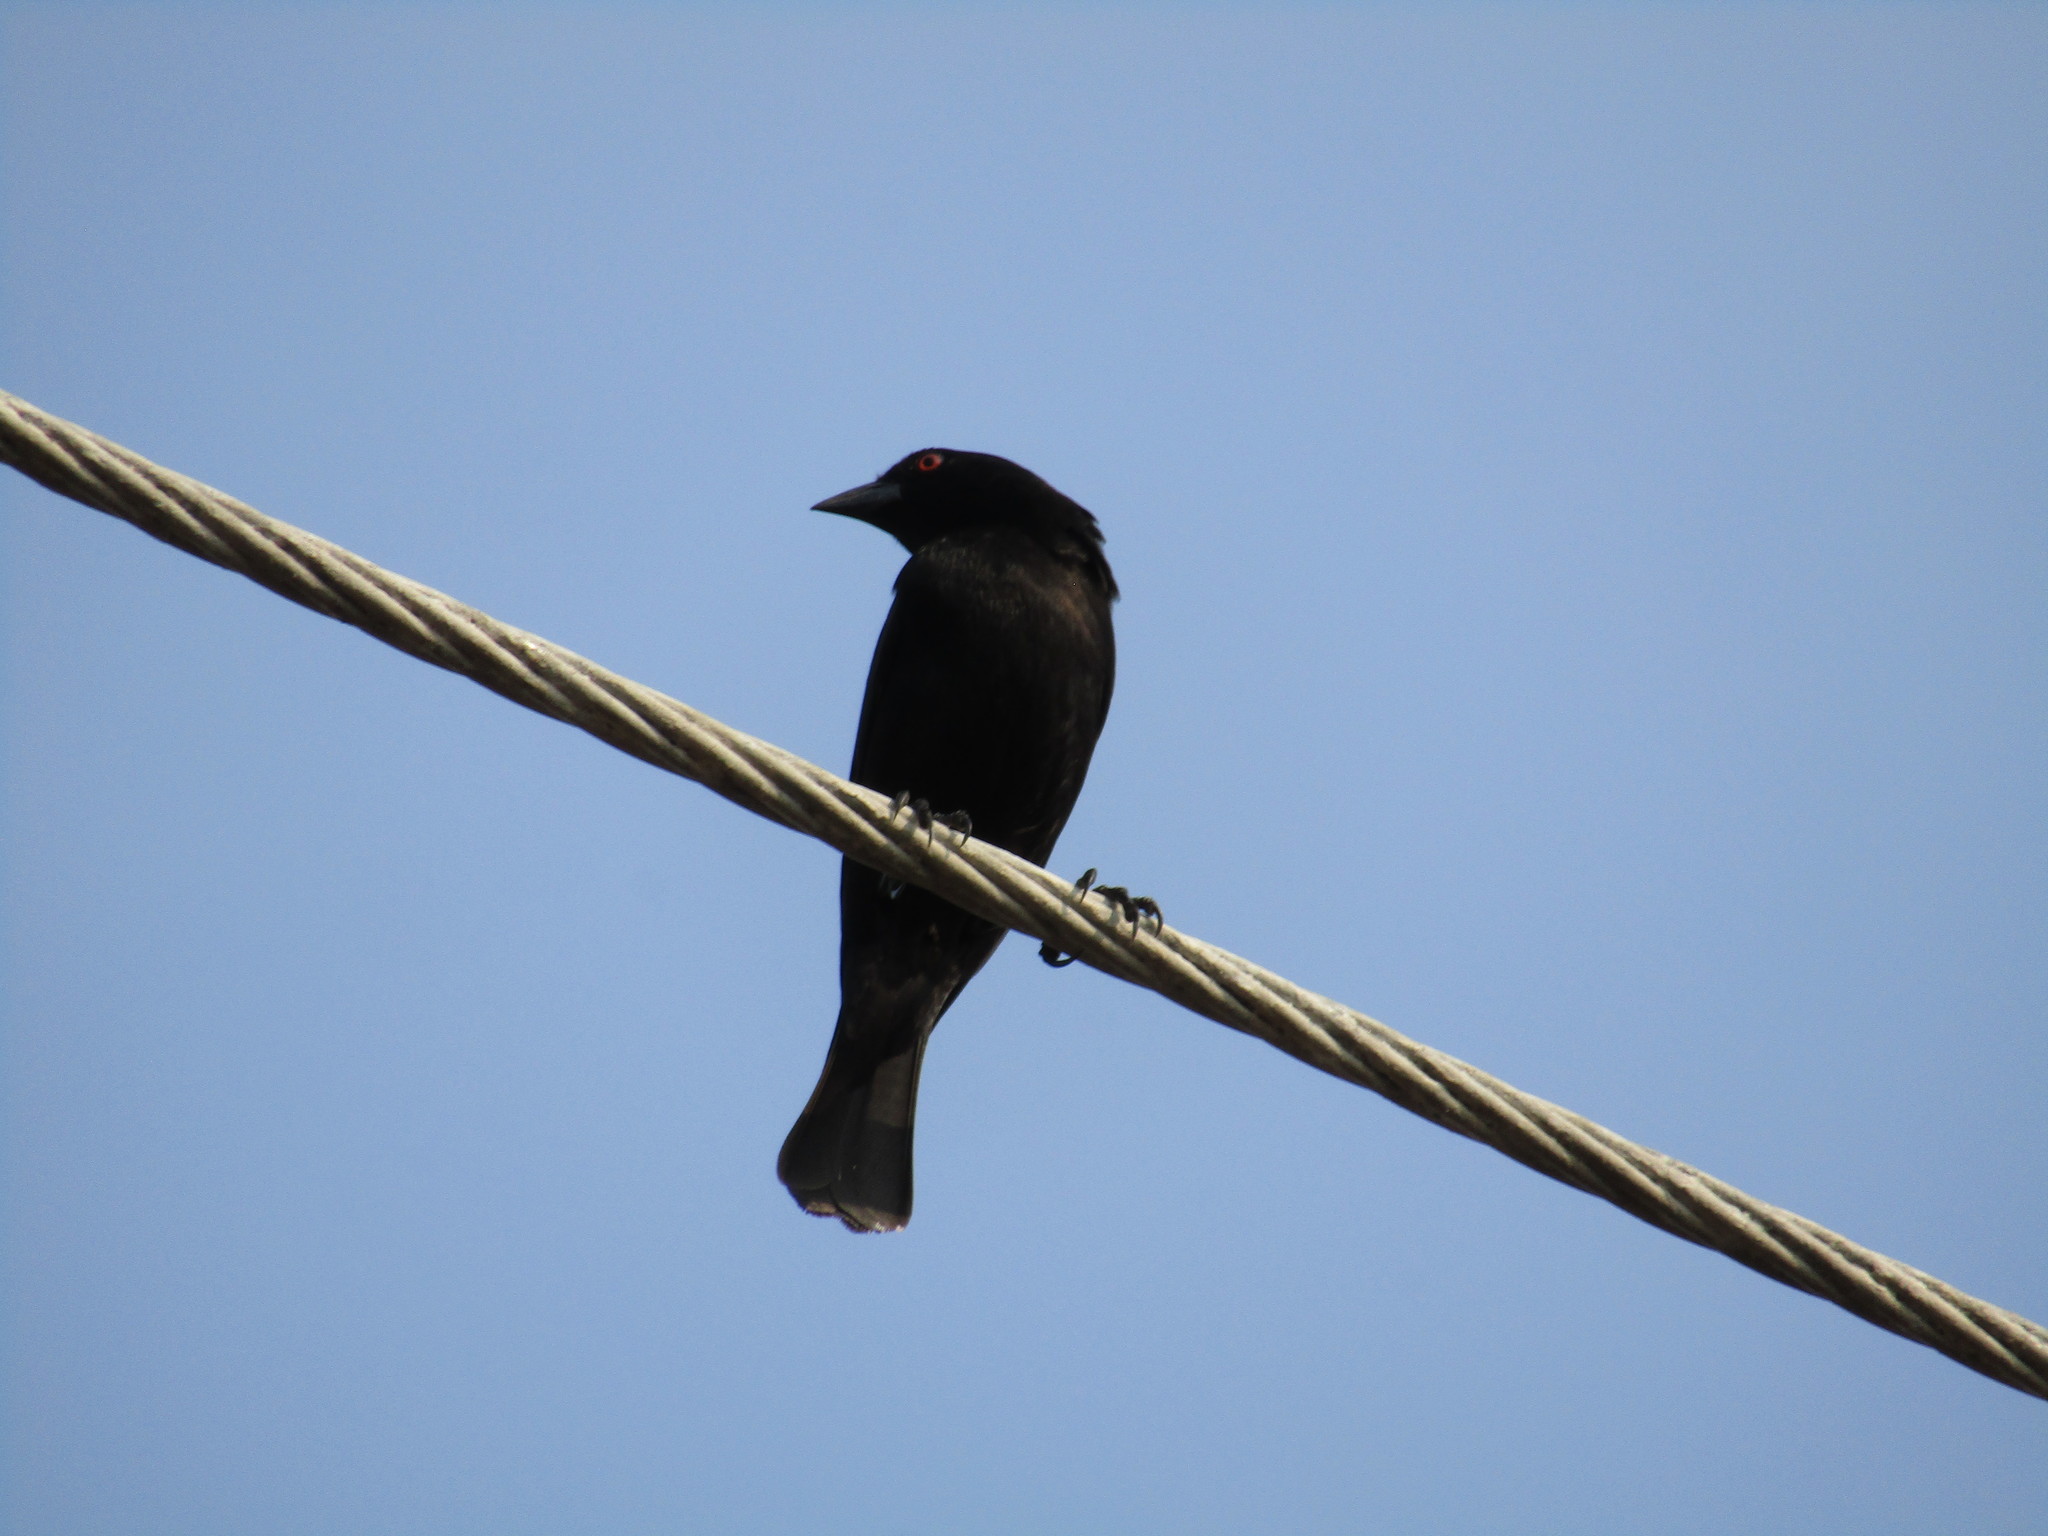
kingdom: Animalia
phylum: Chordata
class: Aves
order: Passeriformes
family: Icteridae
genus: Molothrus
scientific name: Molothrus aeneus
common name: Bronzed cowbird
